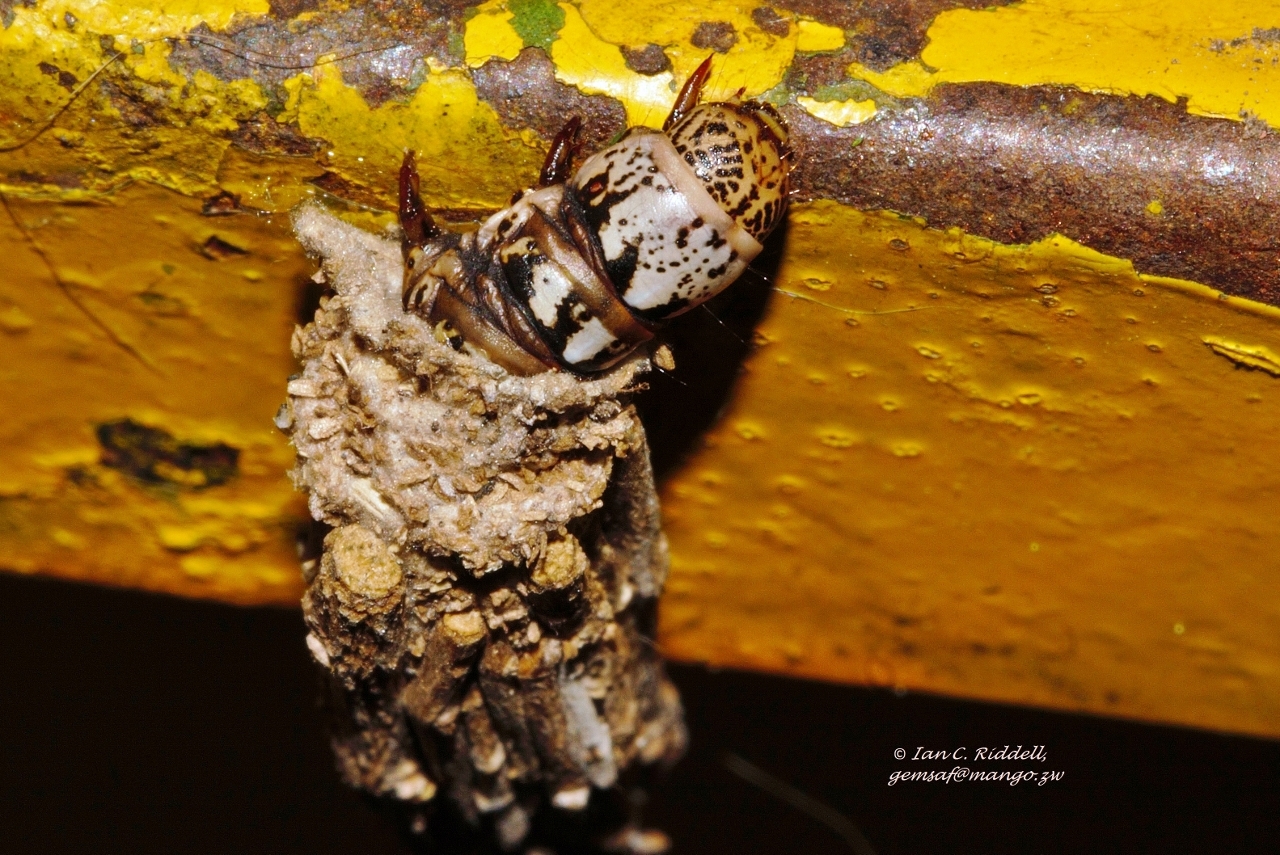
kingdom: Animalia
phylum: Arthropoda
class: Insecta
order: Lepidoptera
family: Psychidae
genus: Eumeta
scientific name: Eumeta hardenbergi
